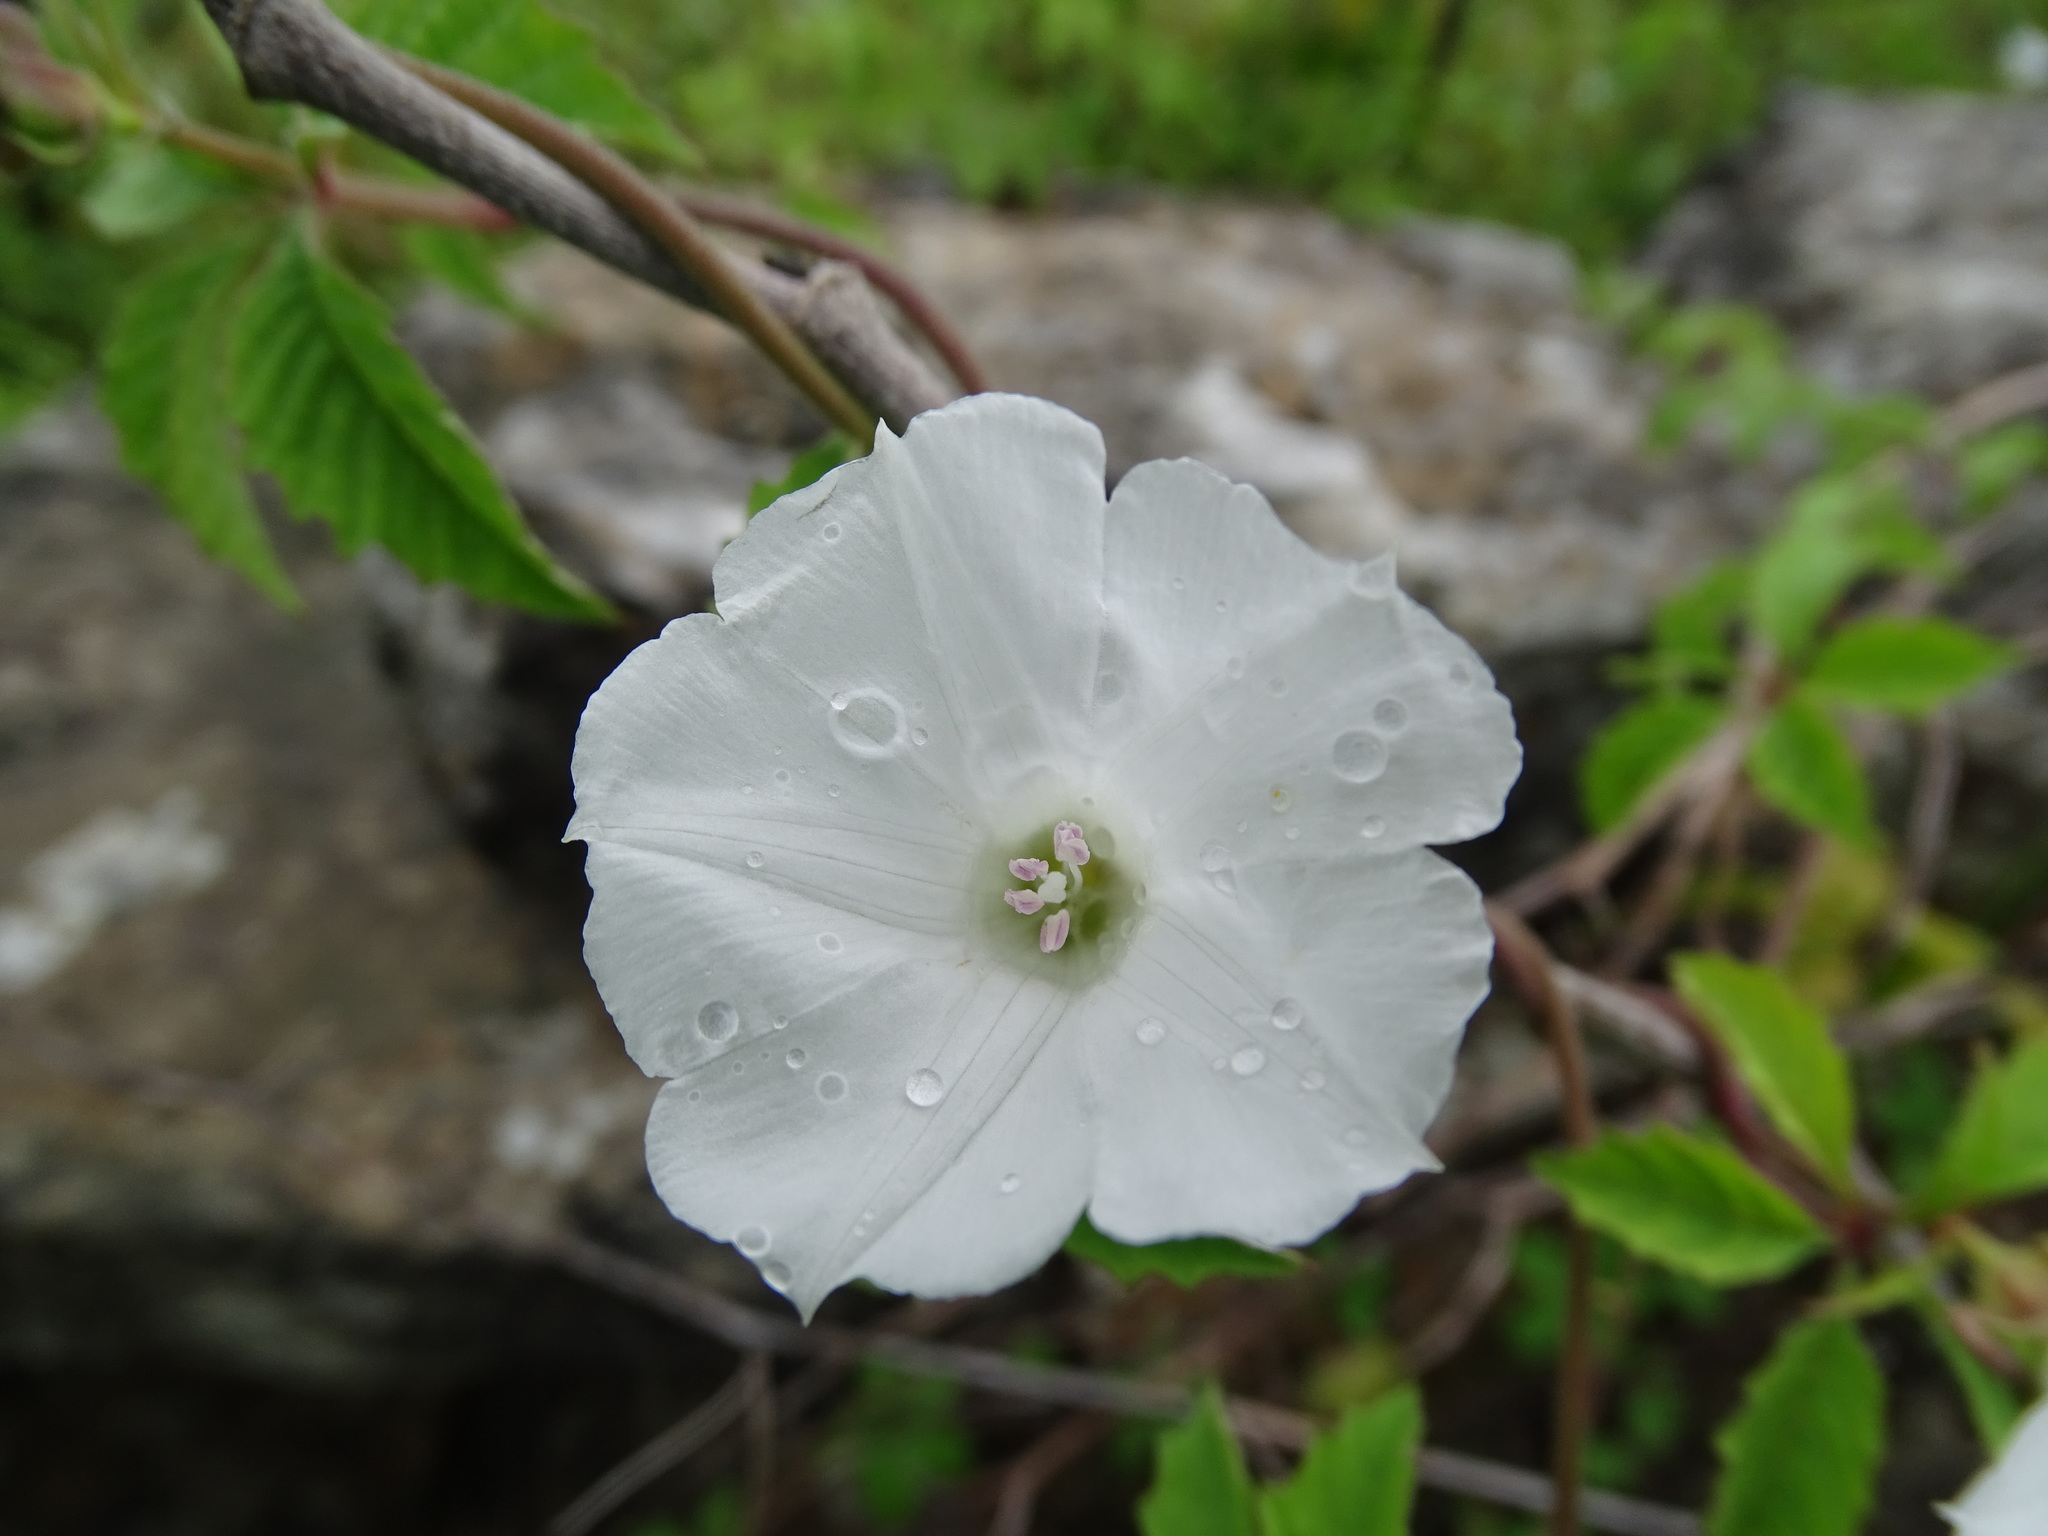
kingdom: Plantae
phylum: Tracheophyta
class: Magnoliopsida
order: Solanales
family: Convolvulaceae
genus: Distimake
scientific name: Distimake cissoides
